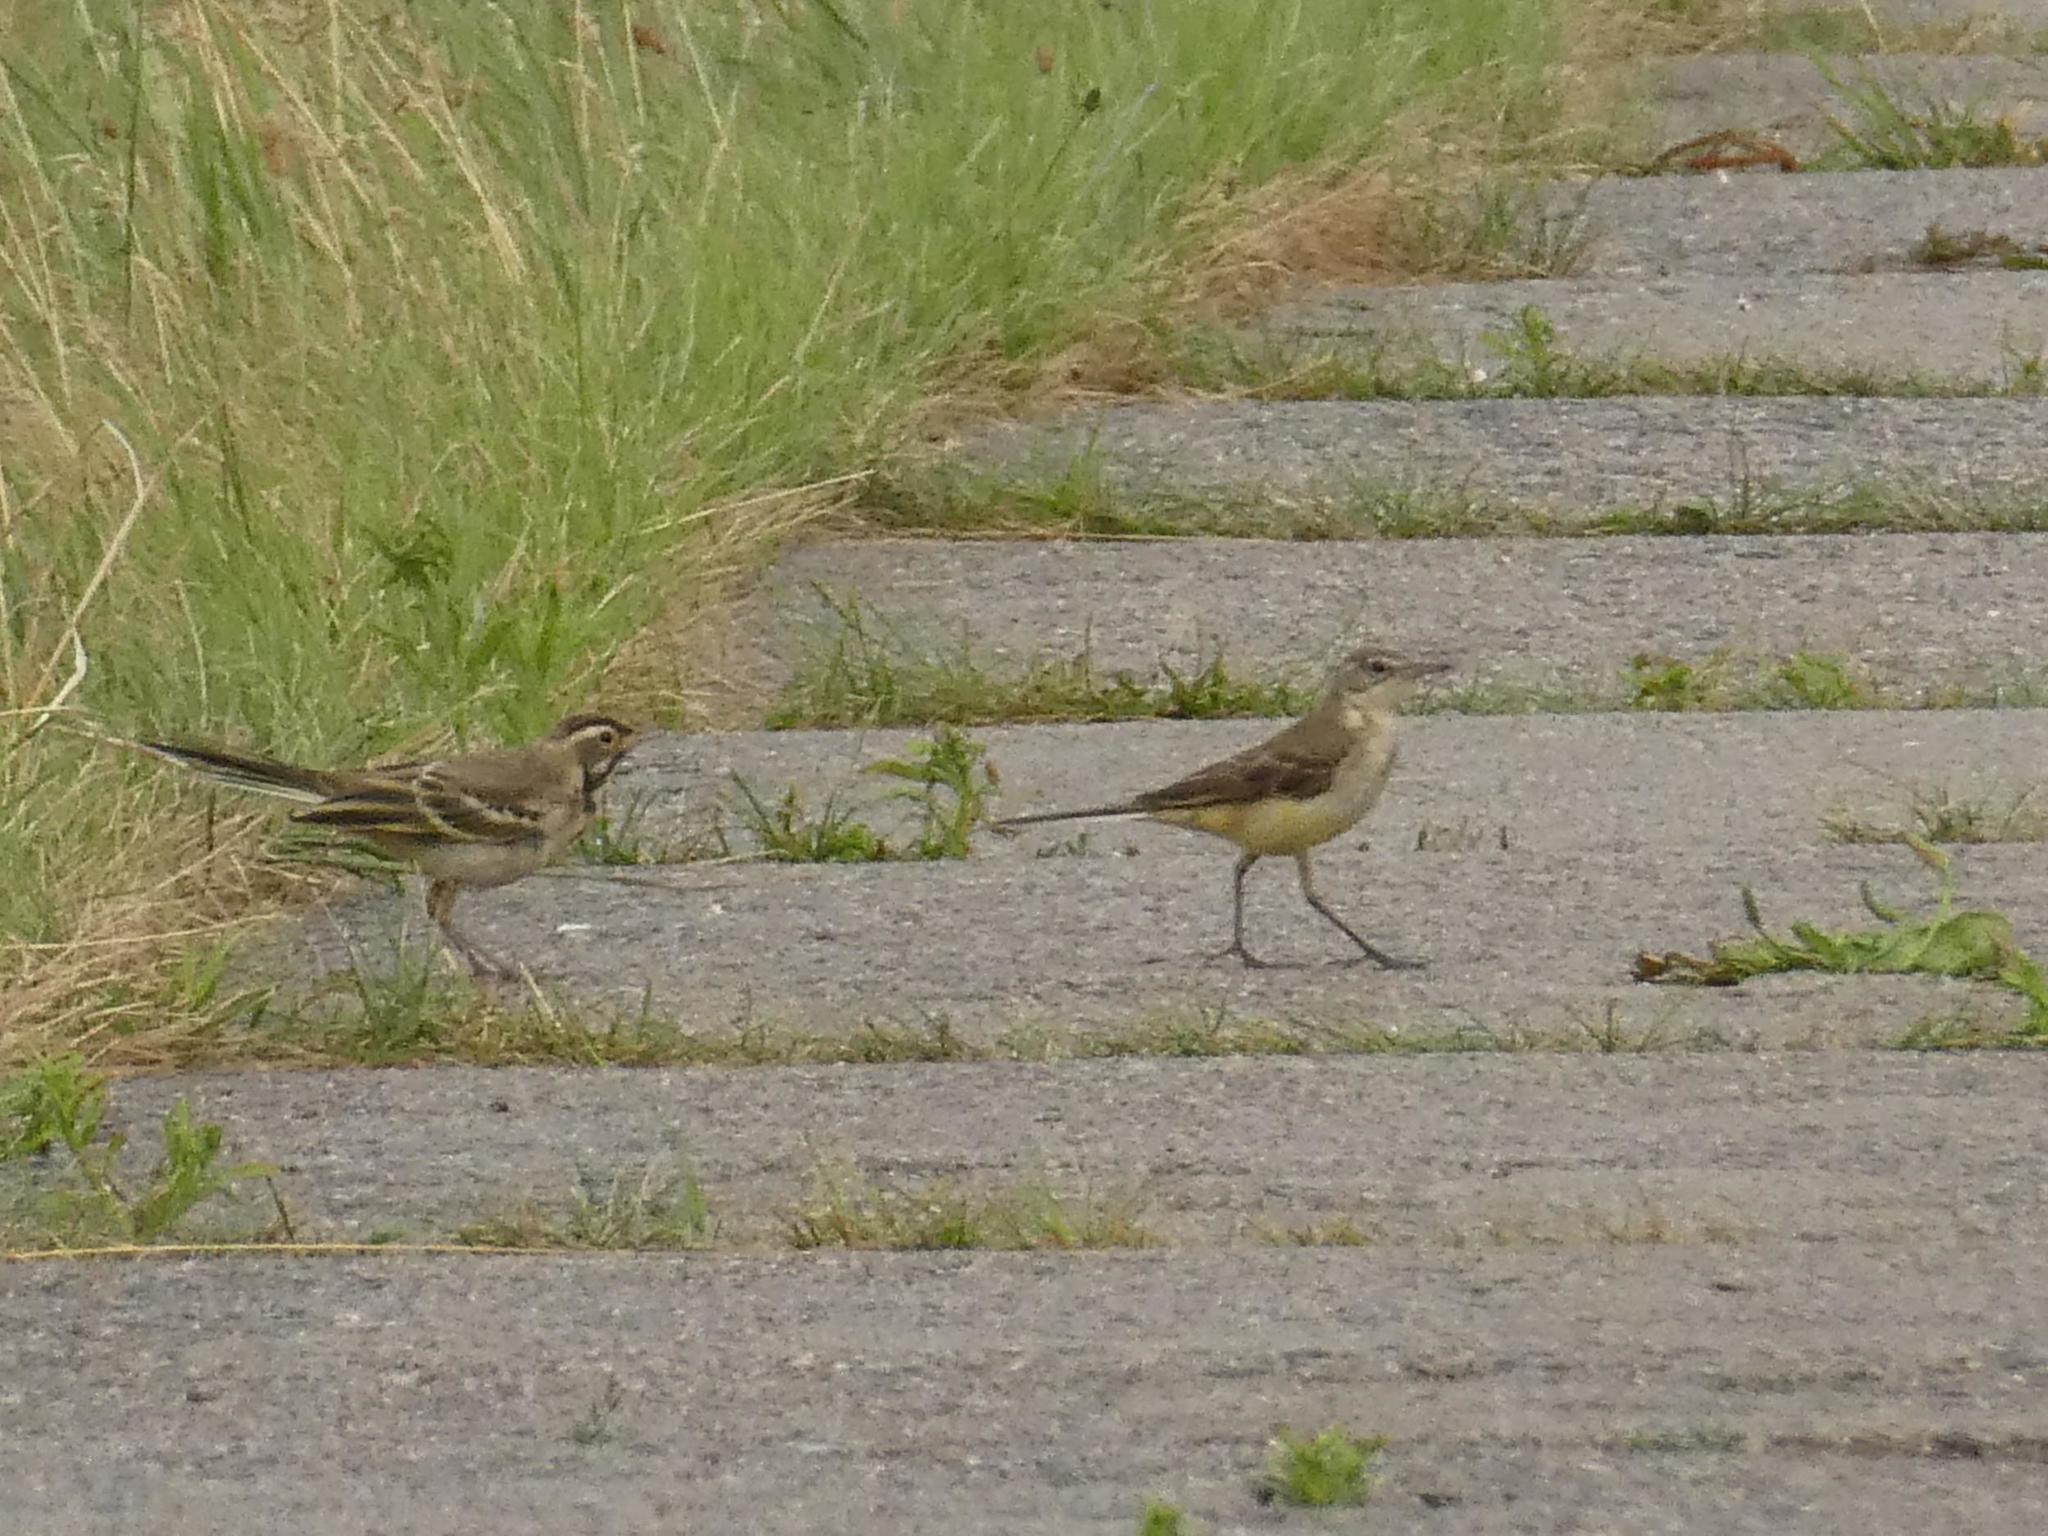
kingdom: Animalia
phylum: Chordata
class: Aves
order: Passeriformes
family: Motacillidae
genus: Motacilla
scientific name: Motacilla flava
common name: Western yellow wagtail
